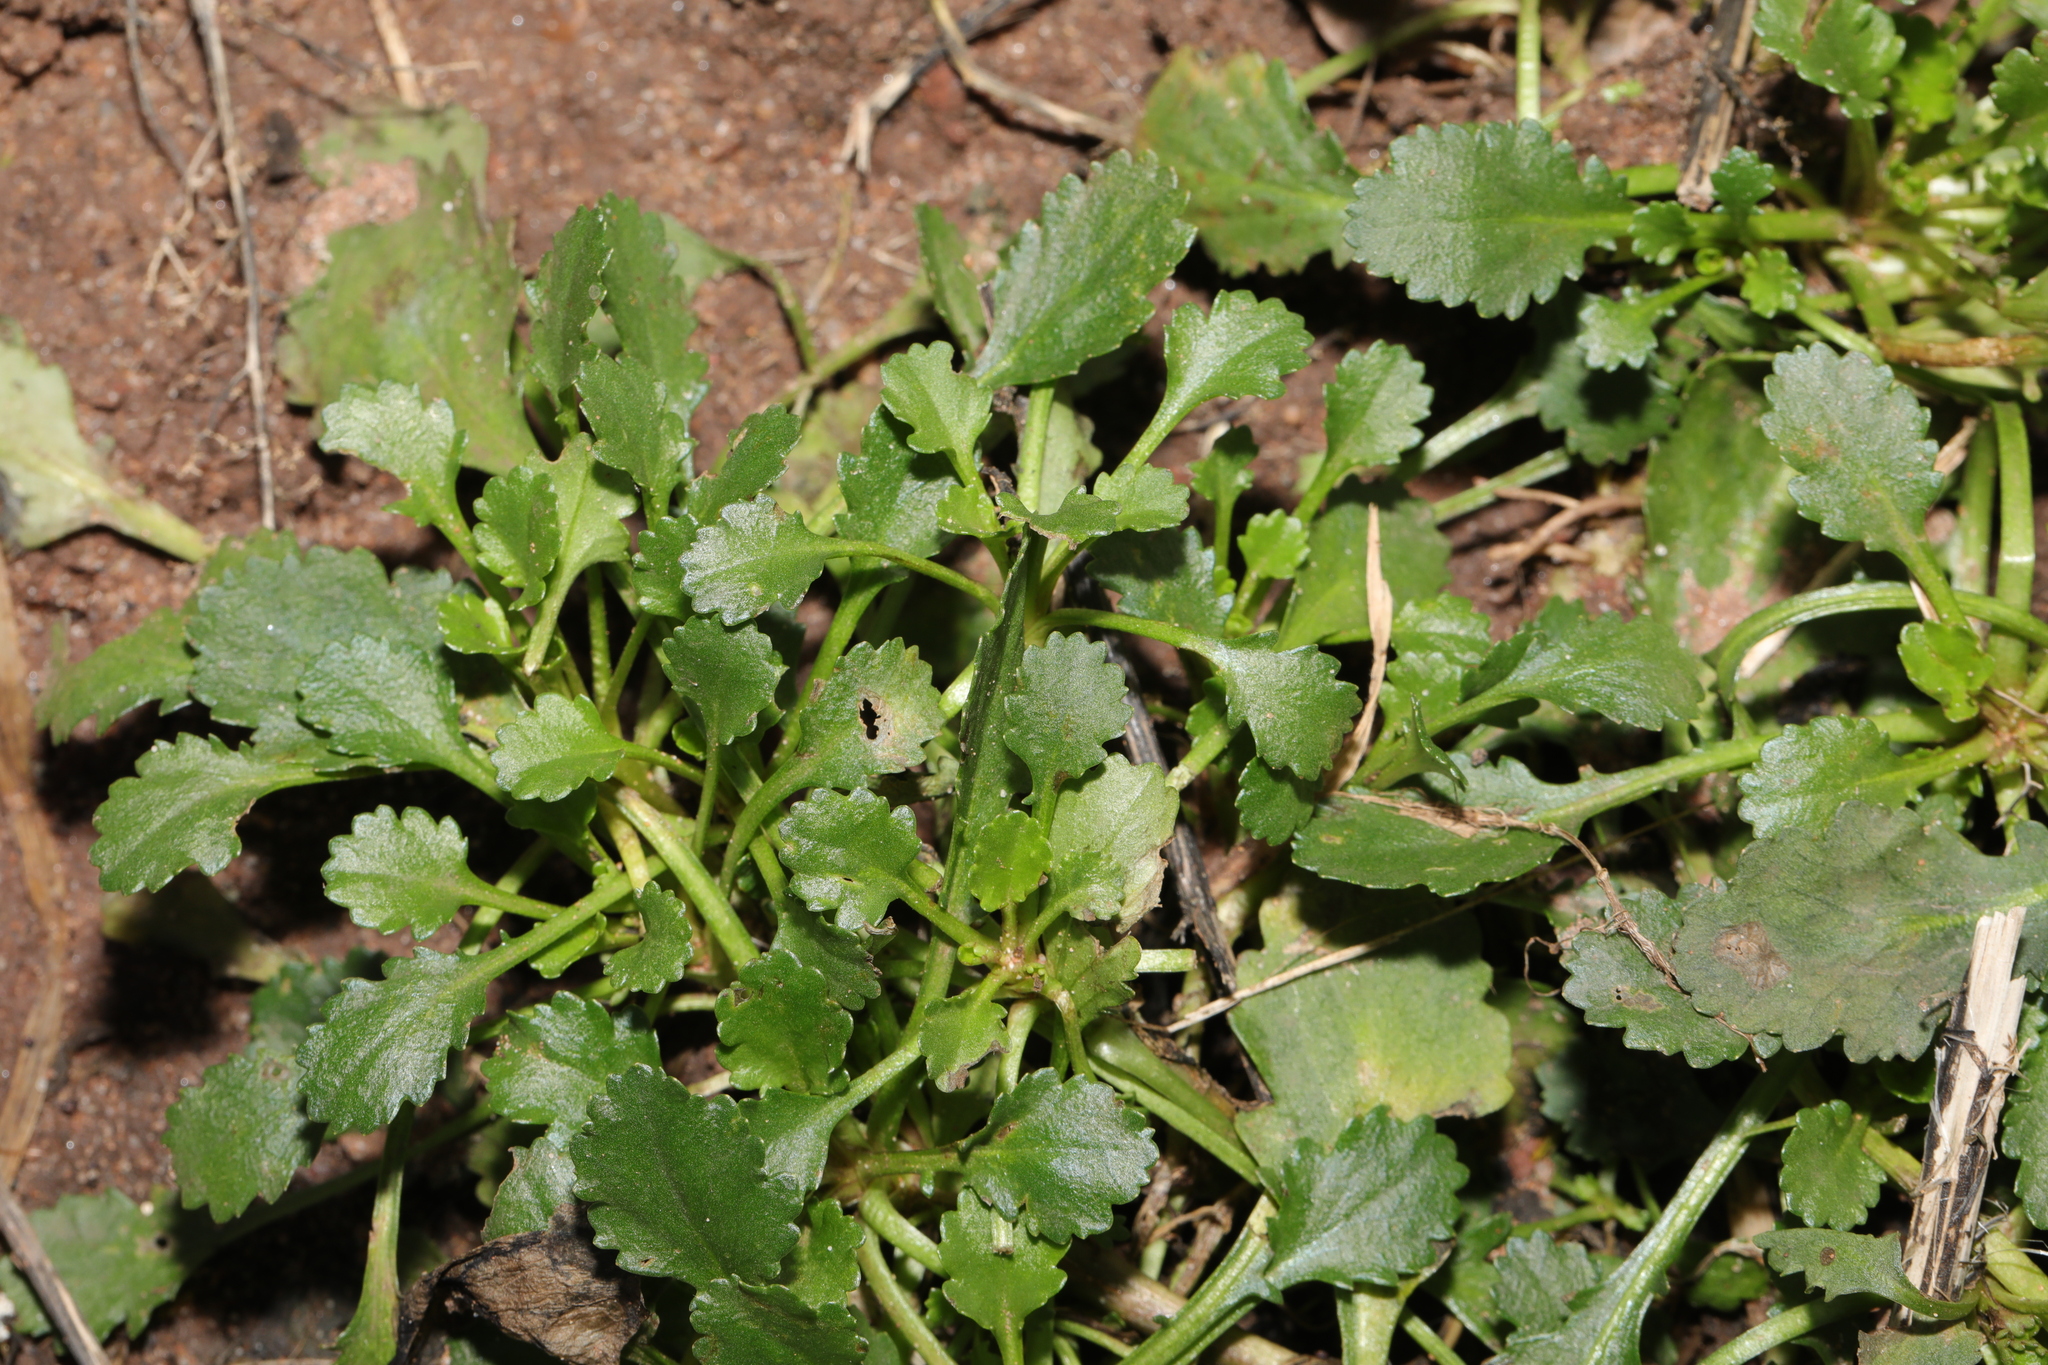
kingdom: Plantae
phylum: Tracheophyta
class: Magnoliopsida
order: Asterales
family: Asteraceae
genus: Leucanthemum
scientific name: Leucanthemum vulgare
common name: Oxeye daisy
